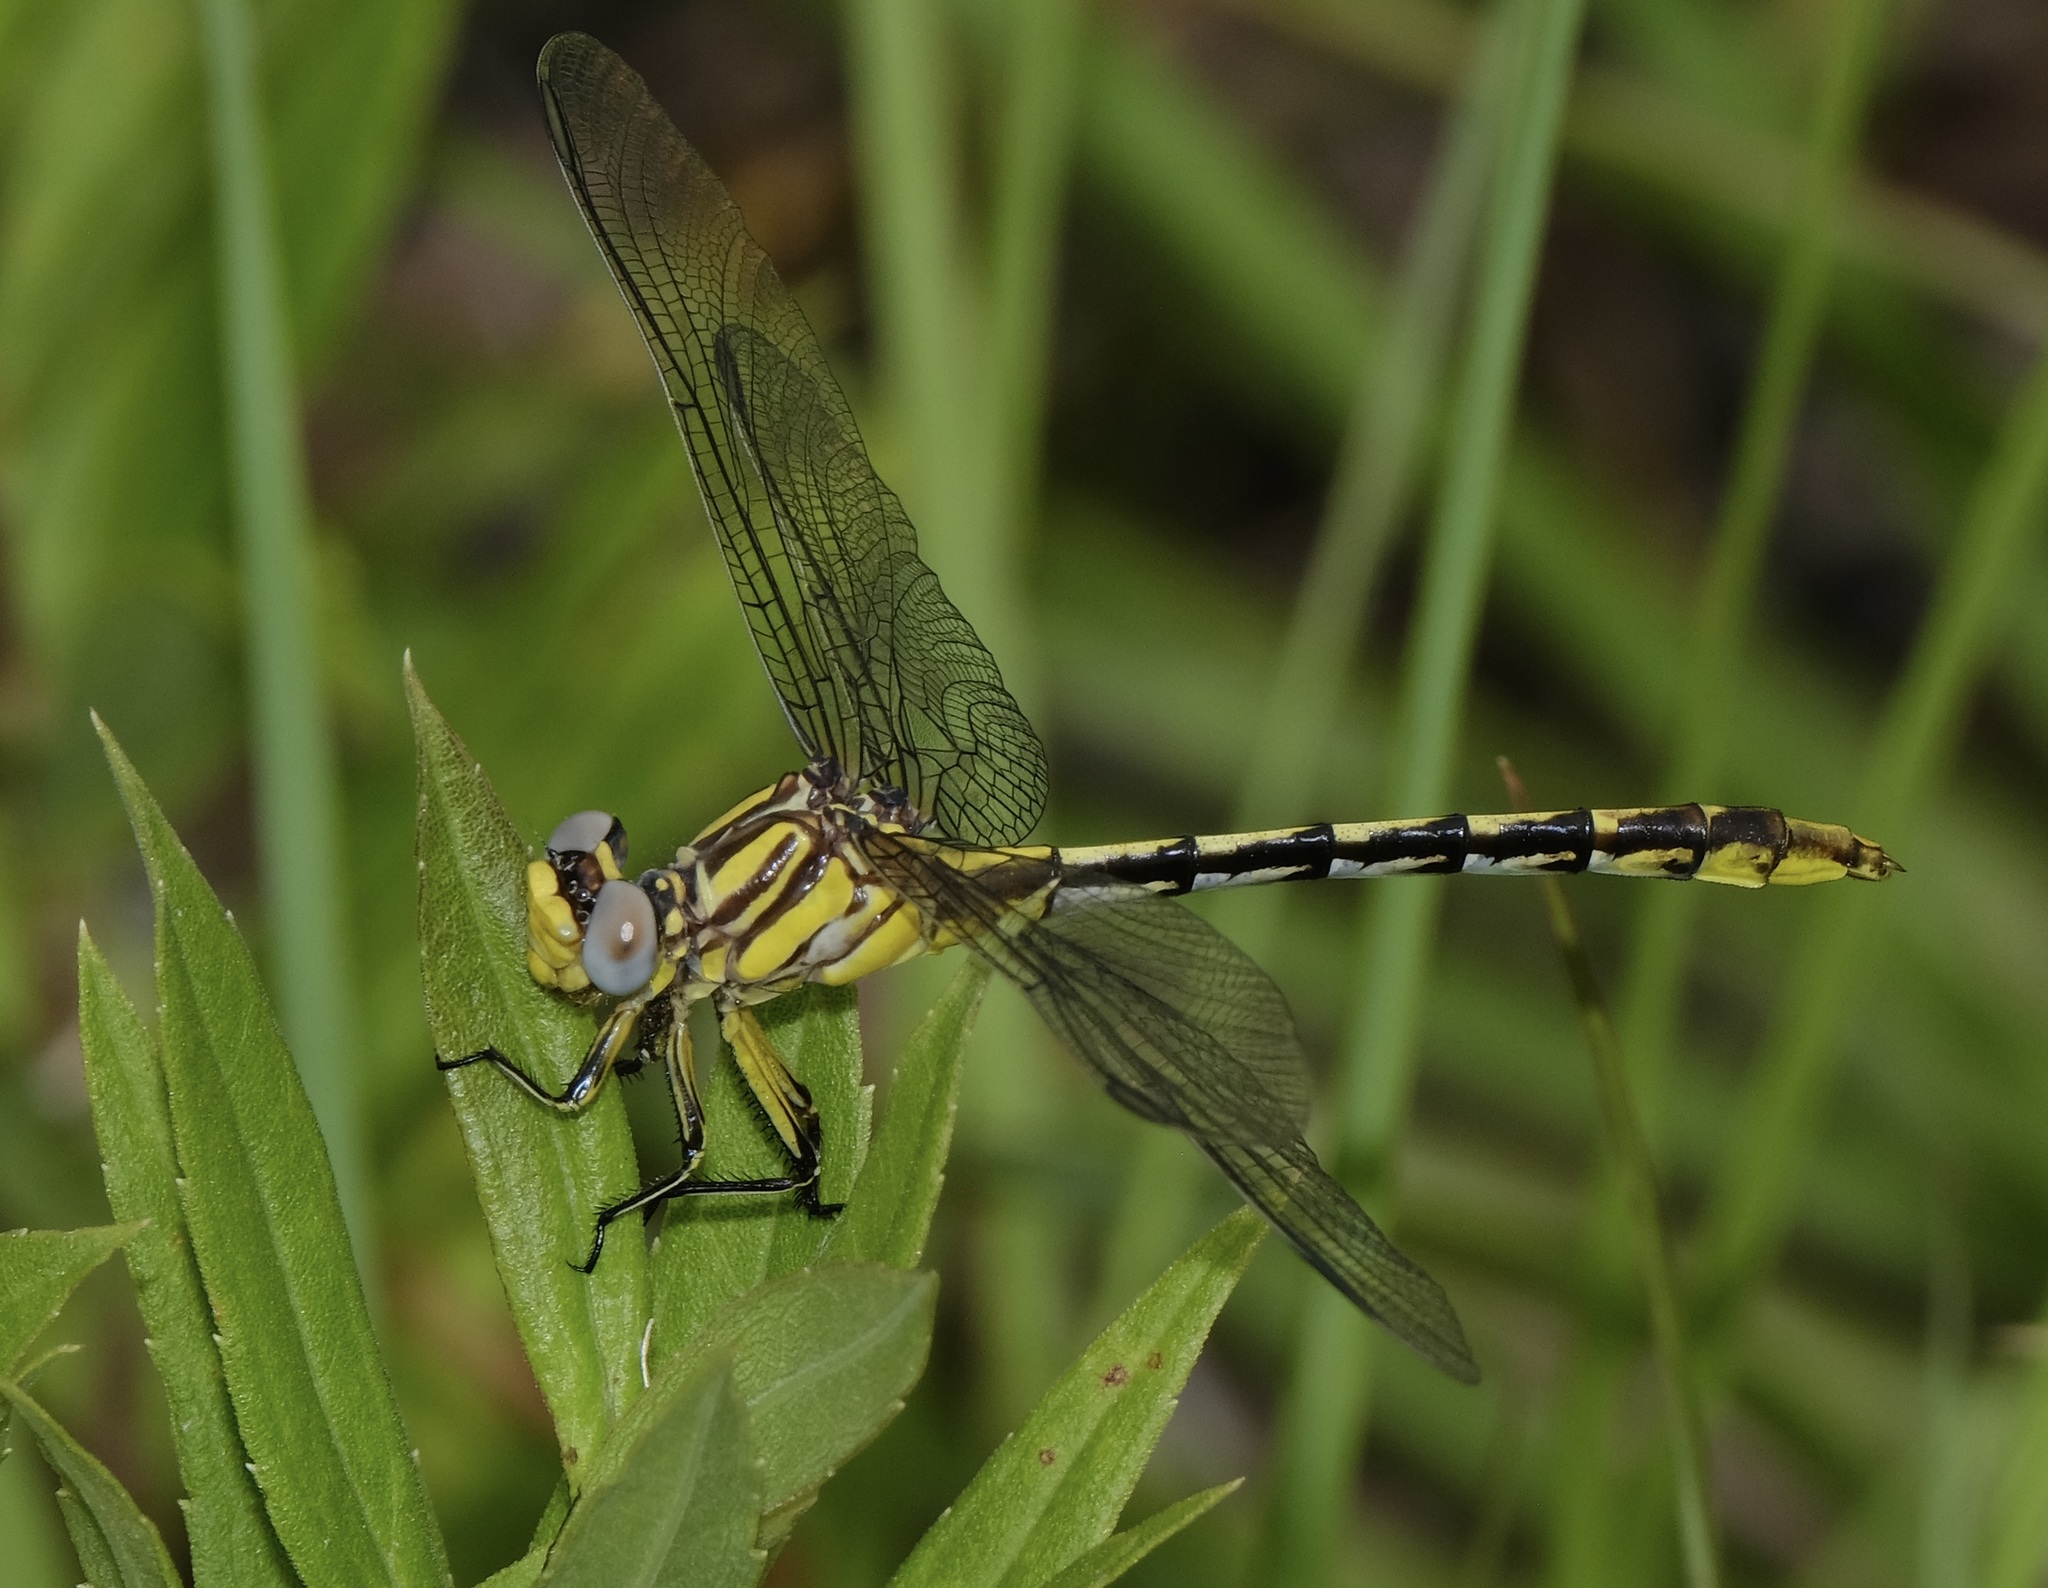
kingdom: Animalia
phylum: Arthropoda
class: Insecta
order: Odonata
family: Gomphidae
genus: Phanogomphus
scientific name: Phanogomphus militaris
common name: Sulphur-tipped clubtail
